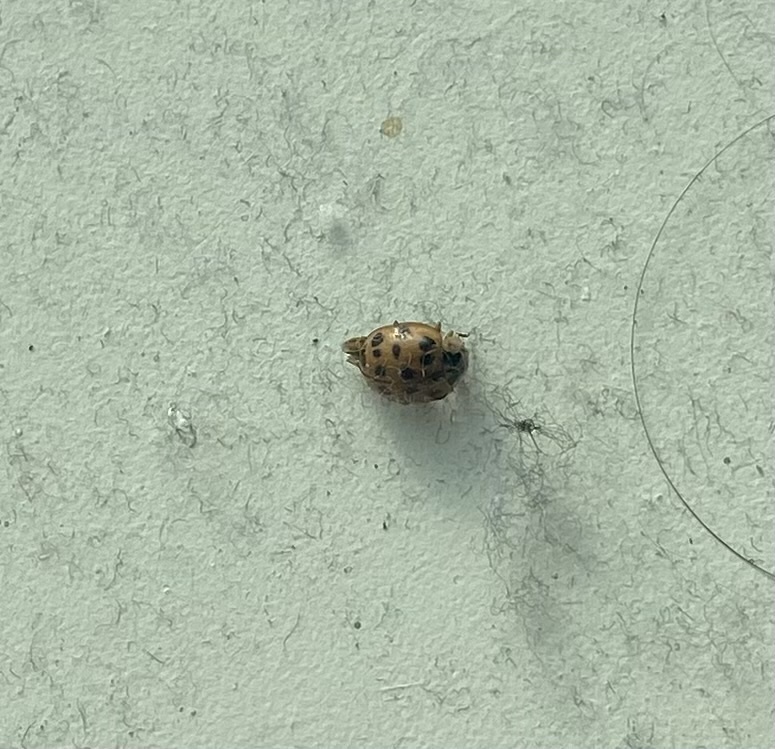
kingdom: Animalia
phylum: Arthropoda
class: Insecta
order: Coleoptera
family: Coccinellidae
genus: Harmonia
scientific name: Harmonia axyridis
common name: Harlequin ladybird
